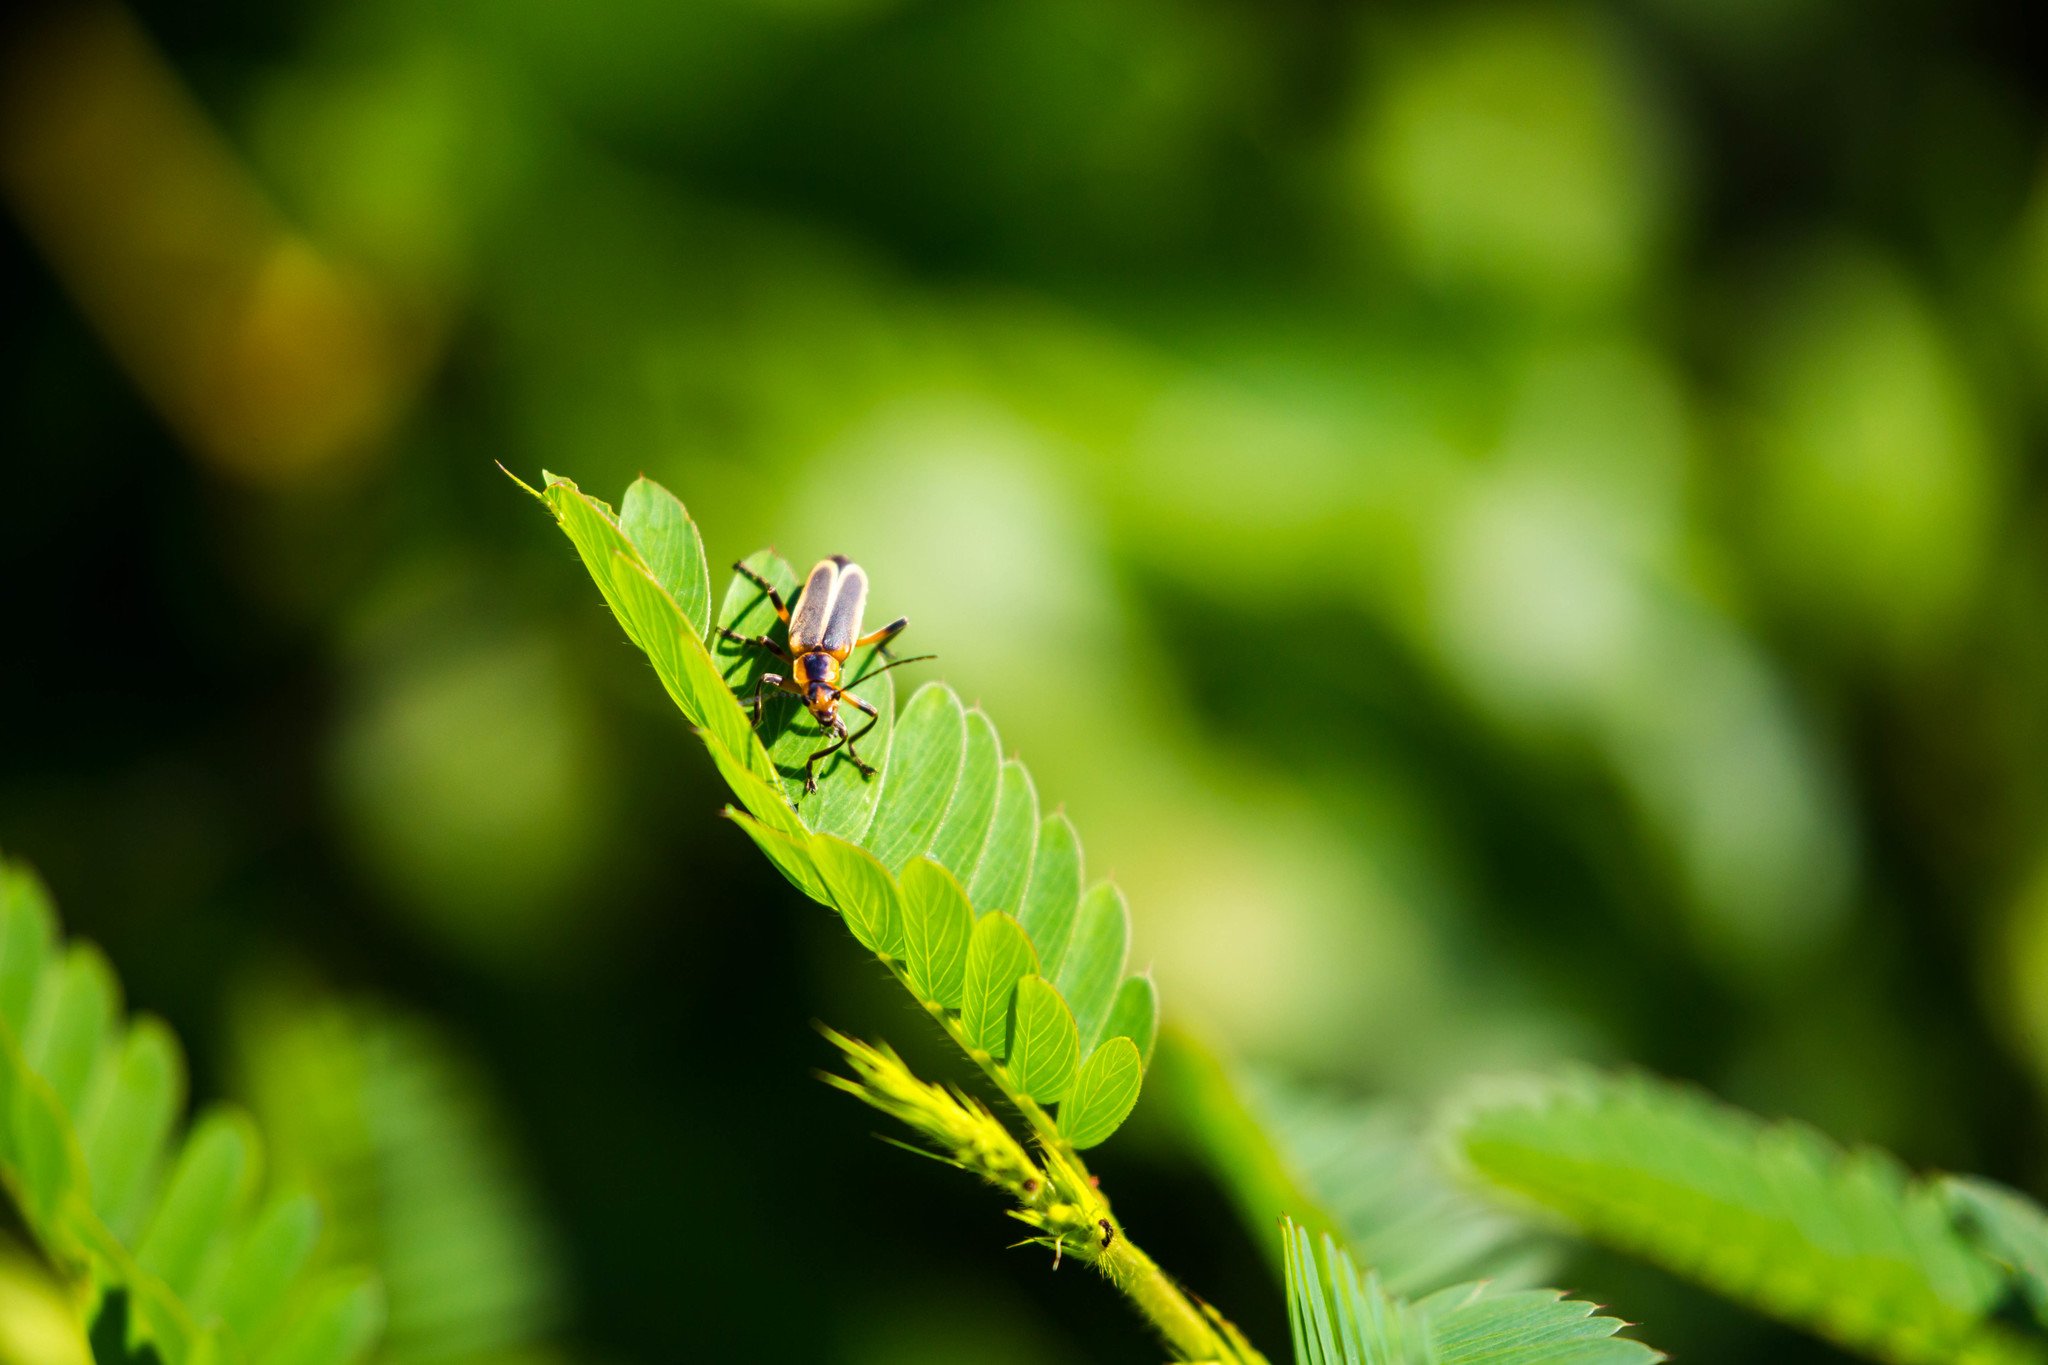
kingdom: Animalia
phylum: Arthropoda
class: Insecta
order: Coleoptera
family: Cantharidae
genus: Chauliognathus
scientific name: Chauliognathus marginatus
